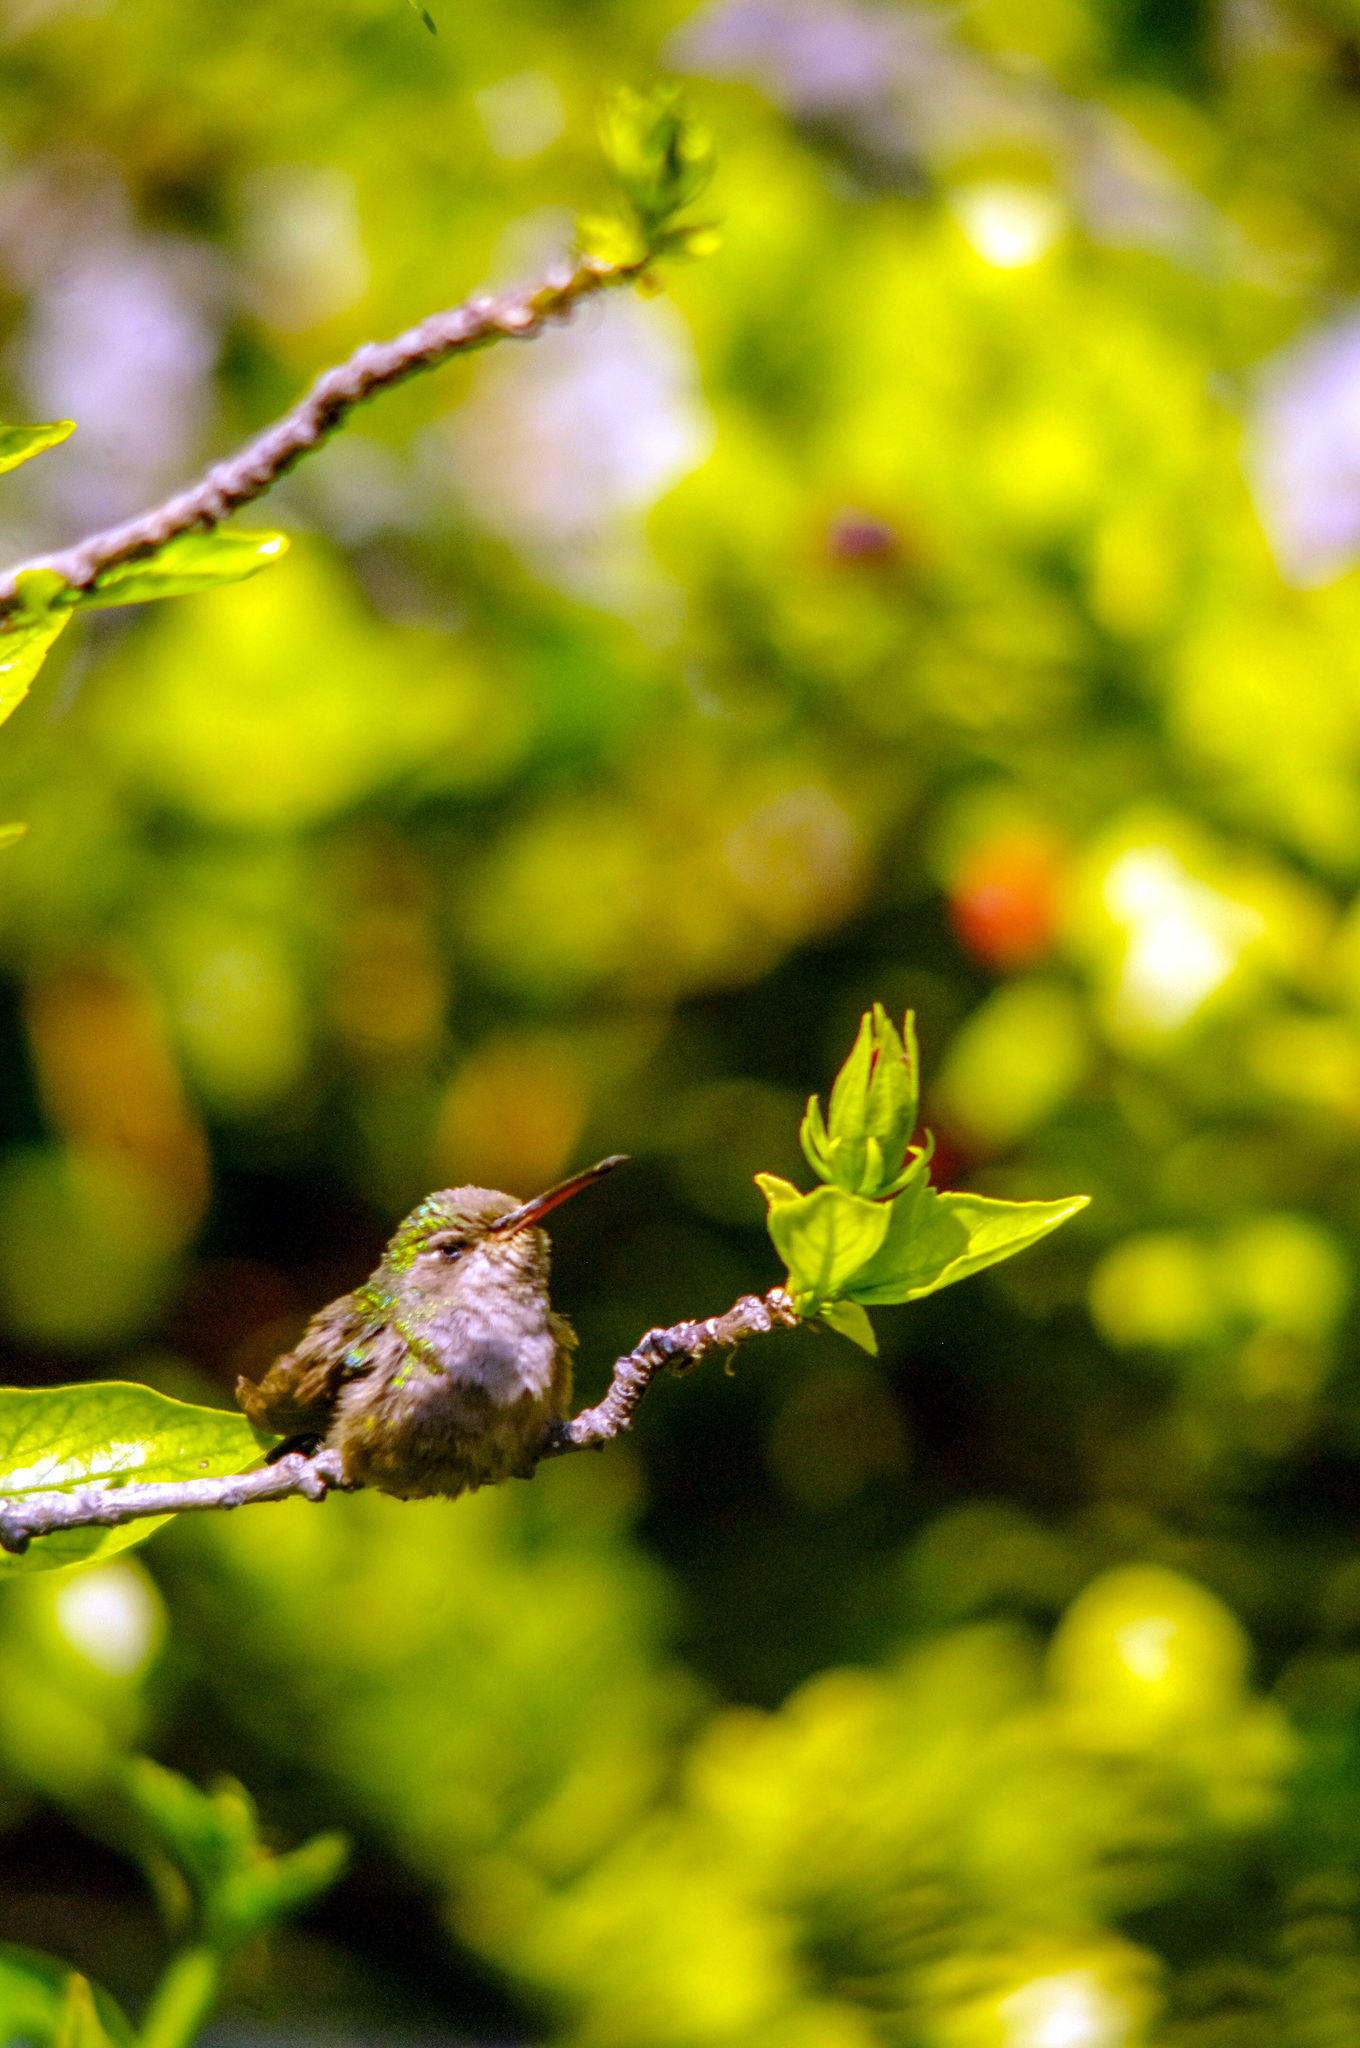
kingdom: Animalia
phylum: Chordata
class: Aves
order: Apodiformes
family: Trochilidae
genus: Cynanthus
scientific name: Cynanthus latirostris
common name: Broad-billed hummingbird
